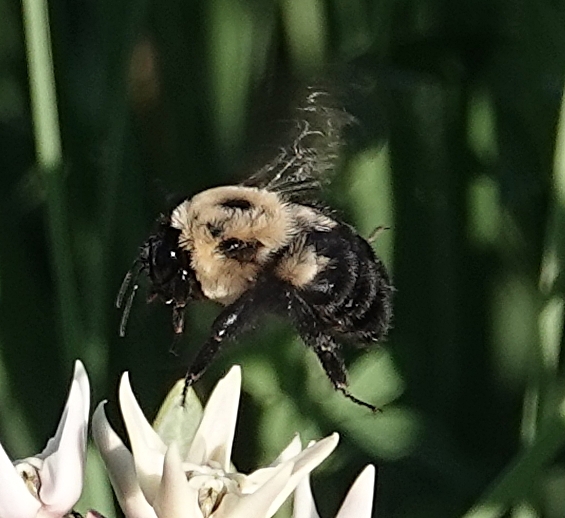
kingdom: Animalia
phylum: Arthropoda
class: Insecta
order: Hymenoptera
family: Apidae
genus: Bombus
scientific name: Bombus griseocollis
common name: Brown-belted bumble bee
